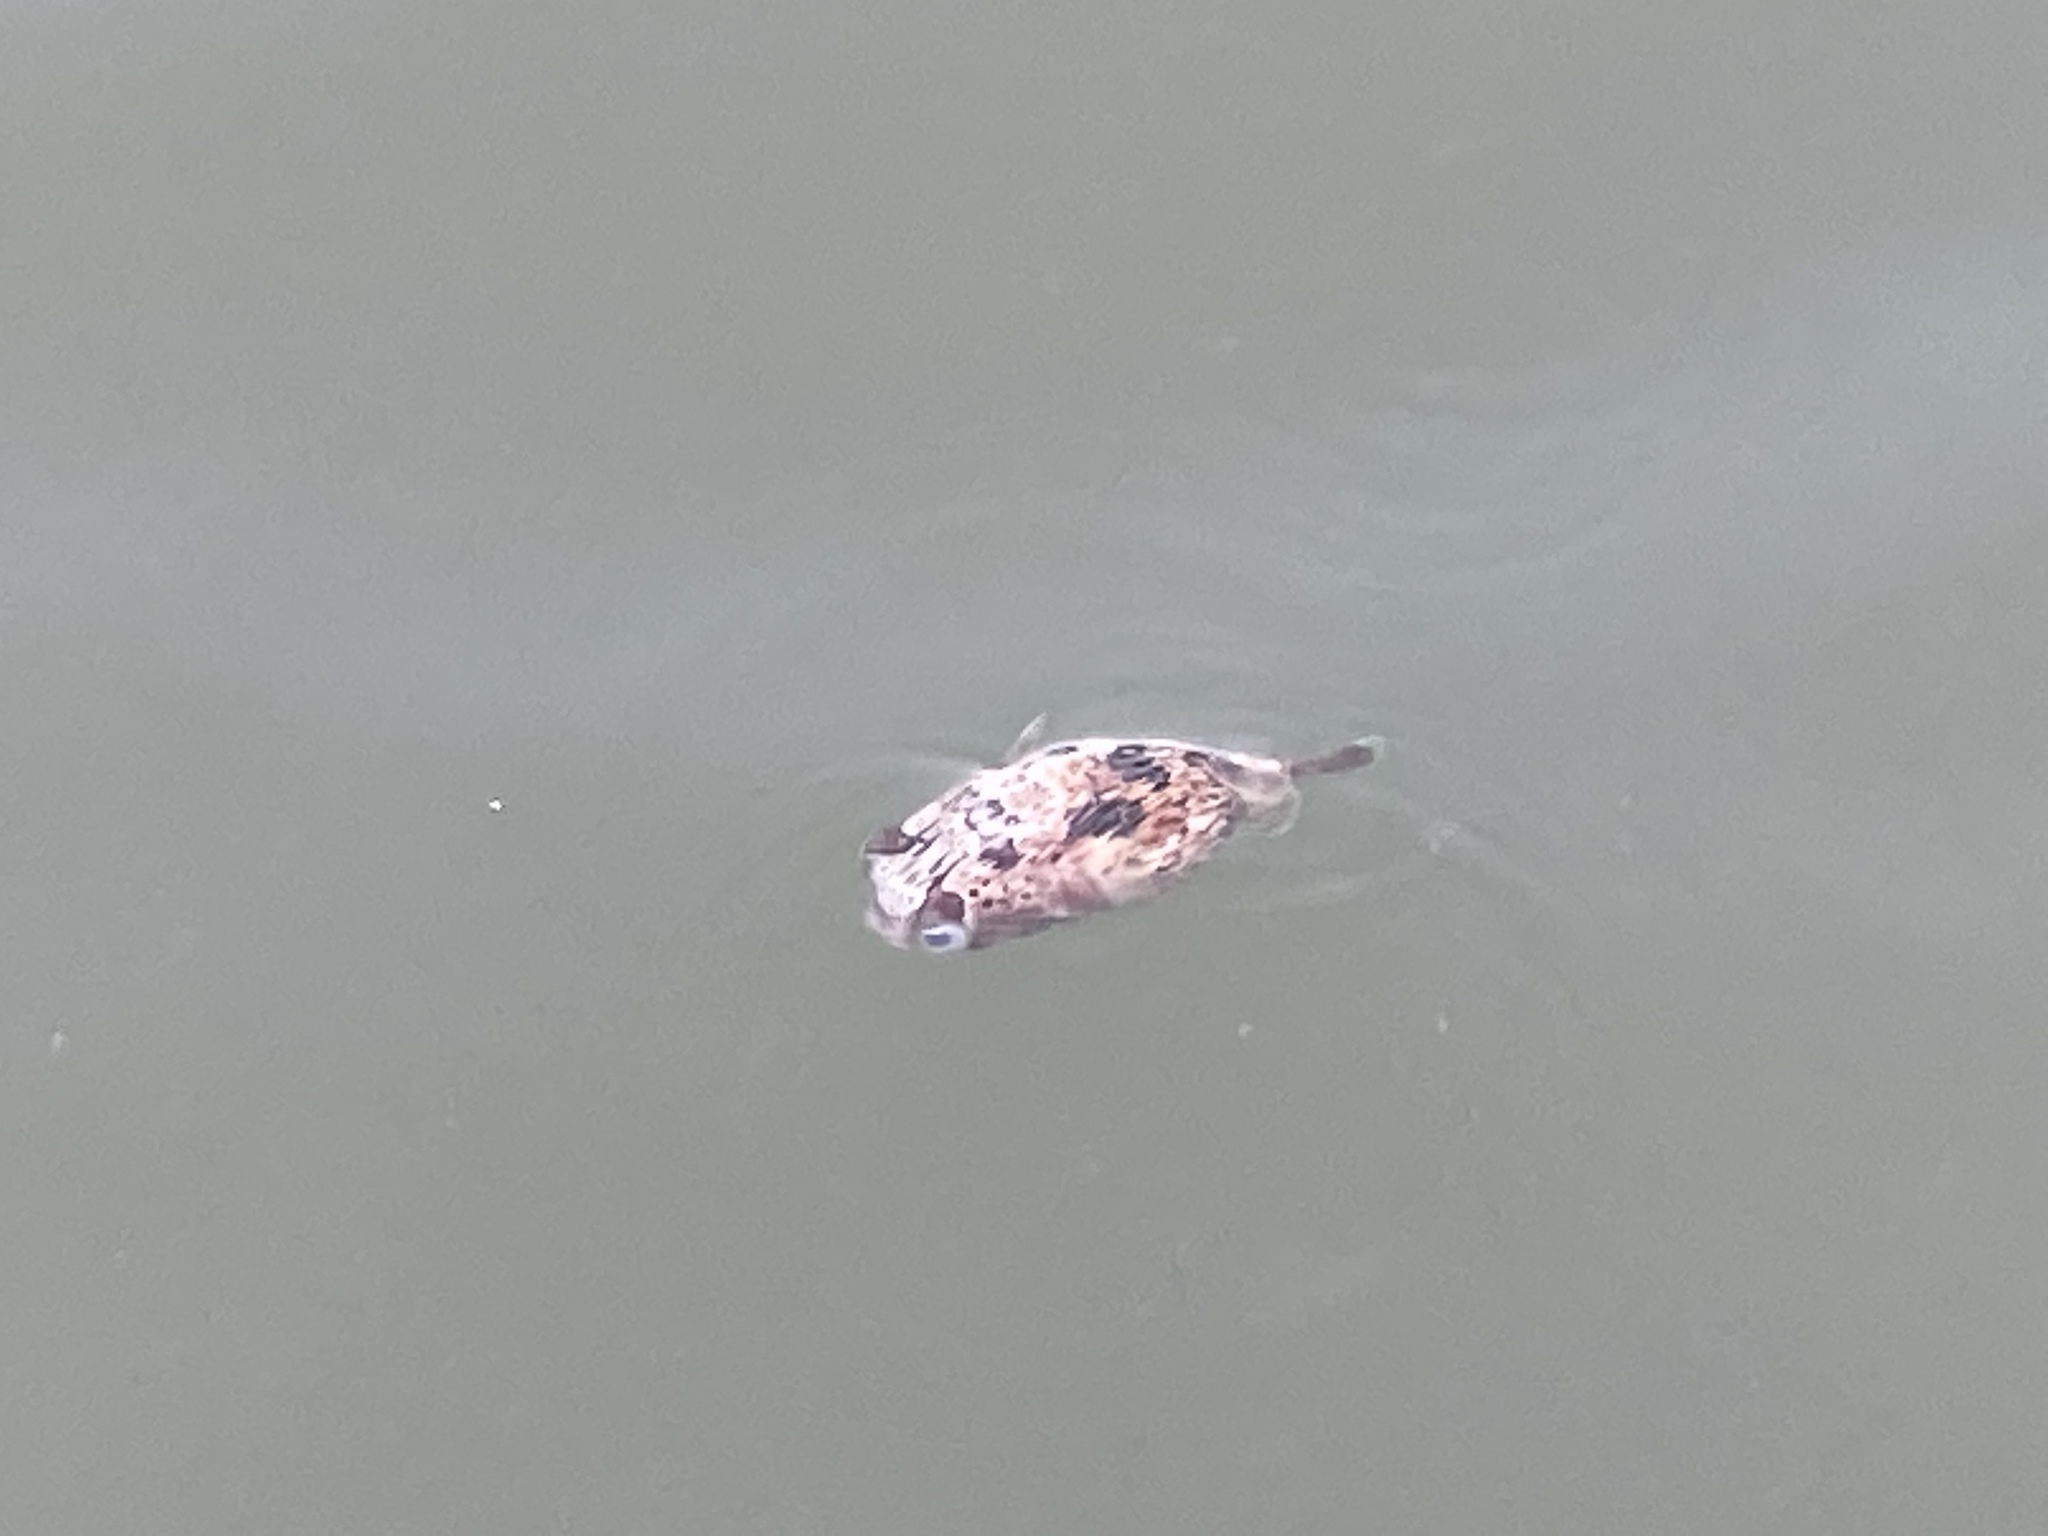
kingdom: Animalia
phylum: Chordata
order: Tetraodontiformes
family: Diodontidae
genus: Diodon
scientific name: Diodon holocanthus
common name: Balloonfish
